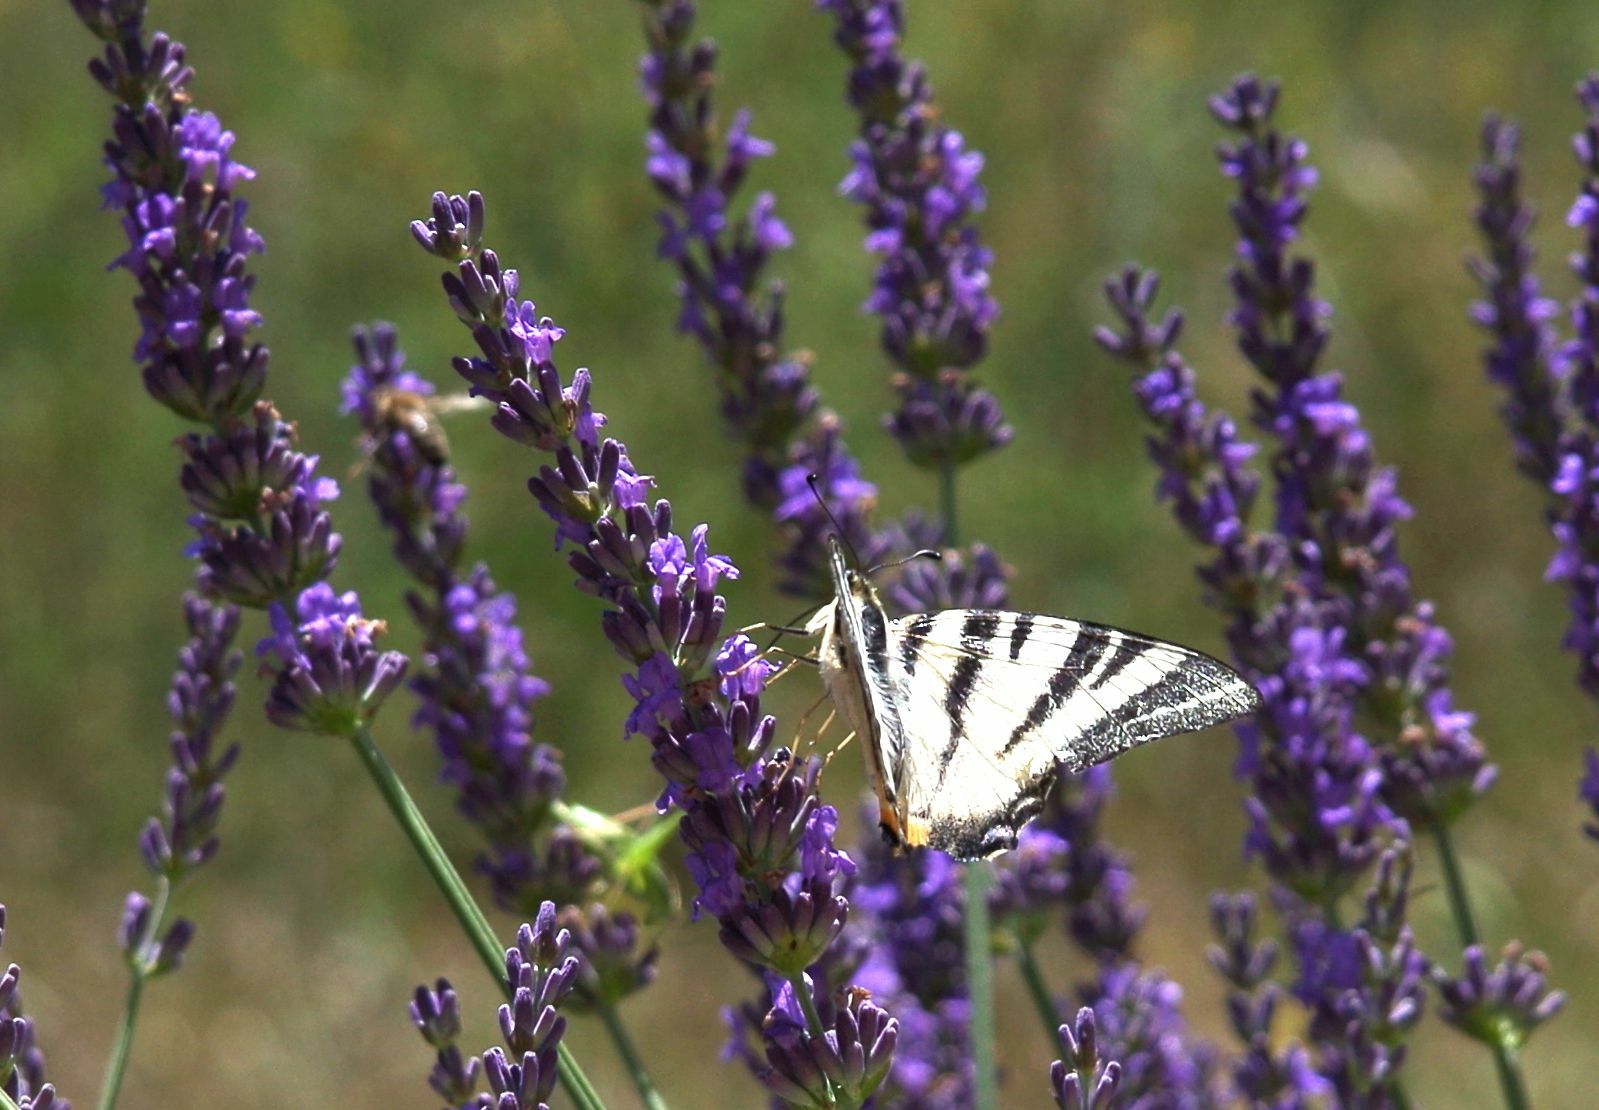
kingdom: Animalia
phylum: Arthropoda
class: Insecta
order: Lepidoptera
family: Papilionidae
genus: Iphiclides
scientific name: Iphiclides podalirius
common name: Scarce swallowtail
